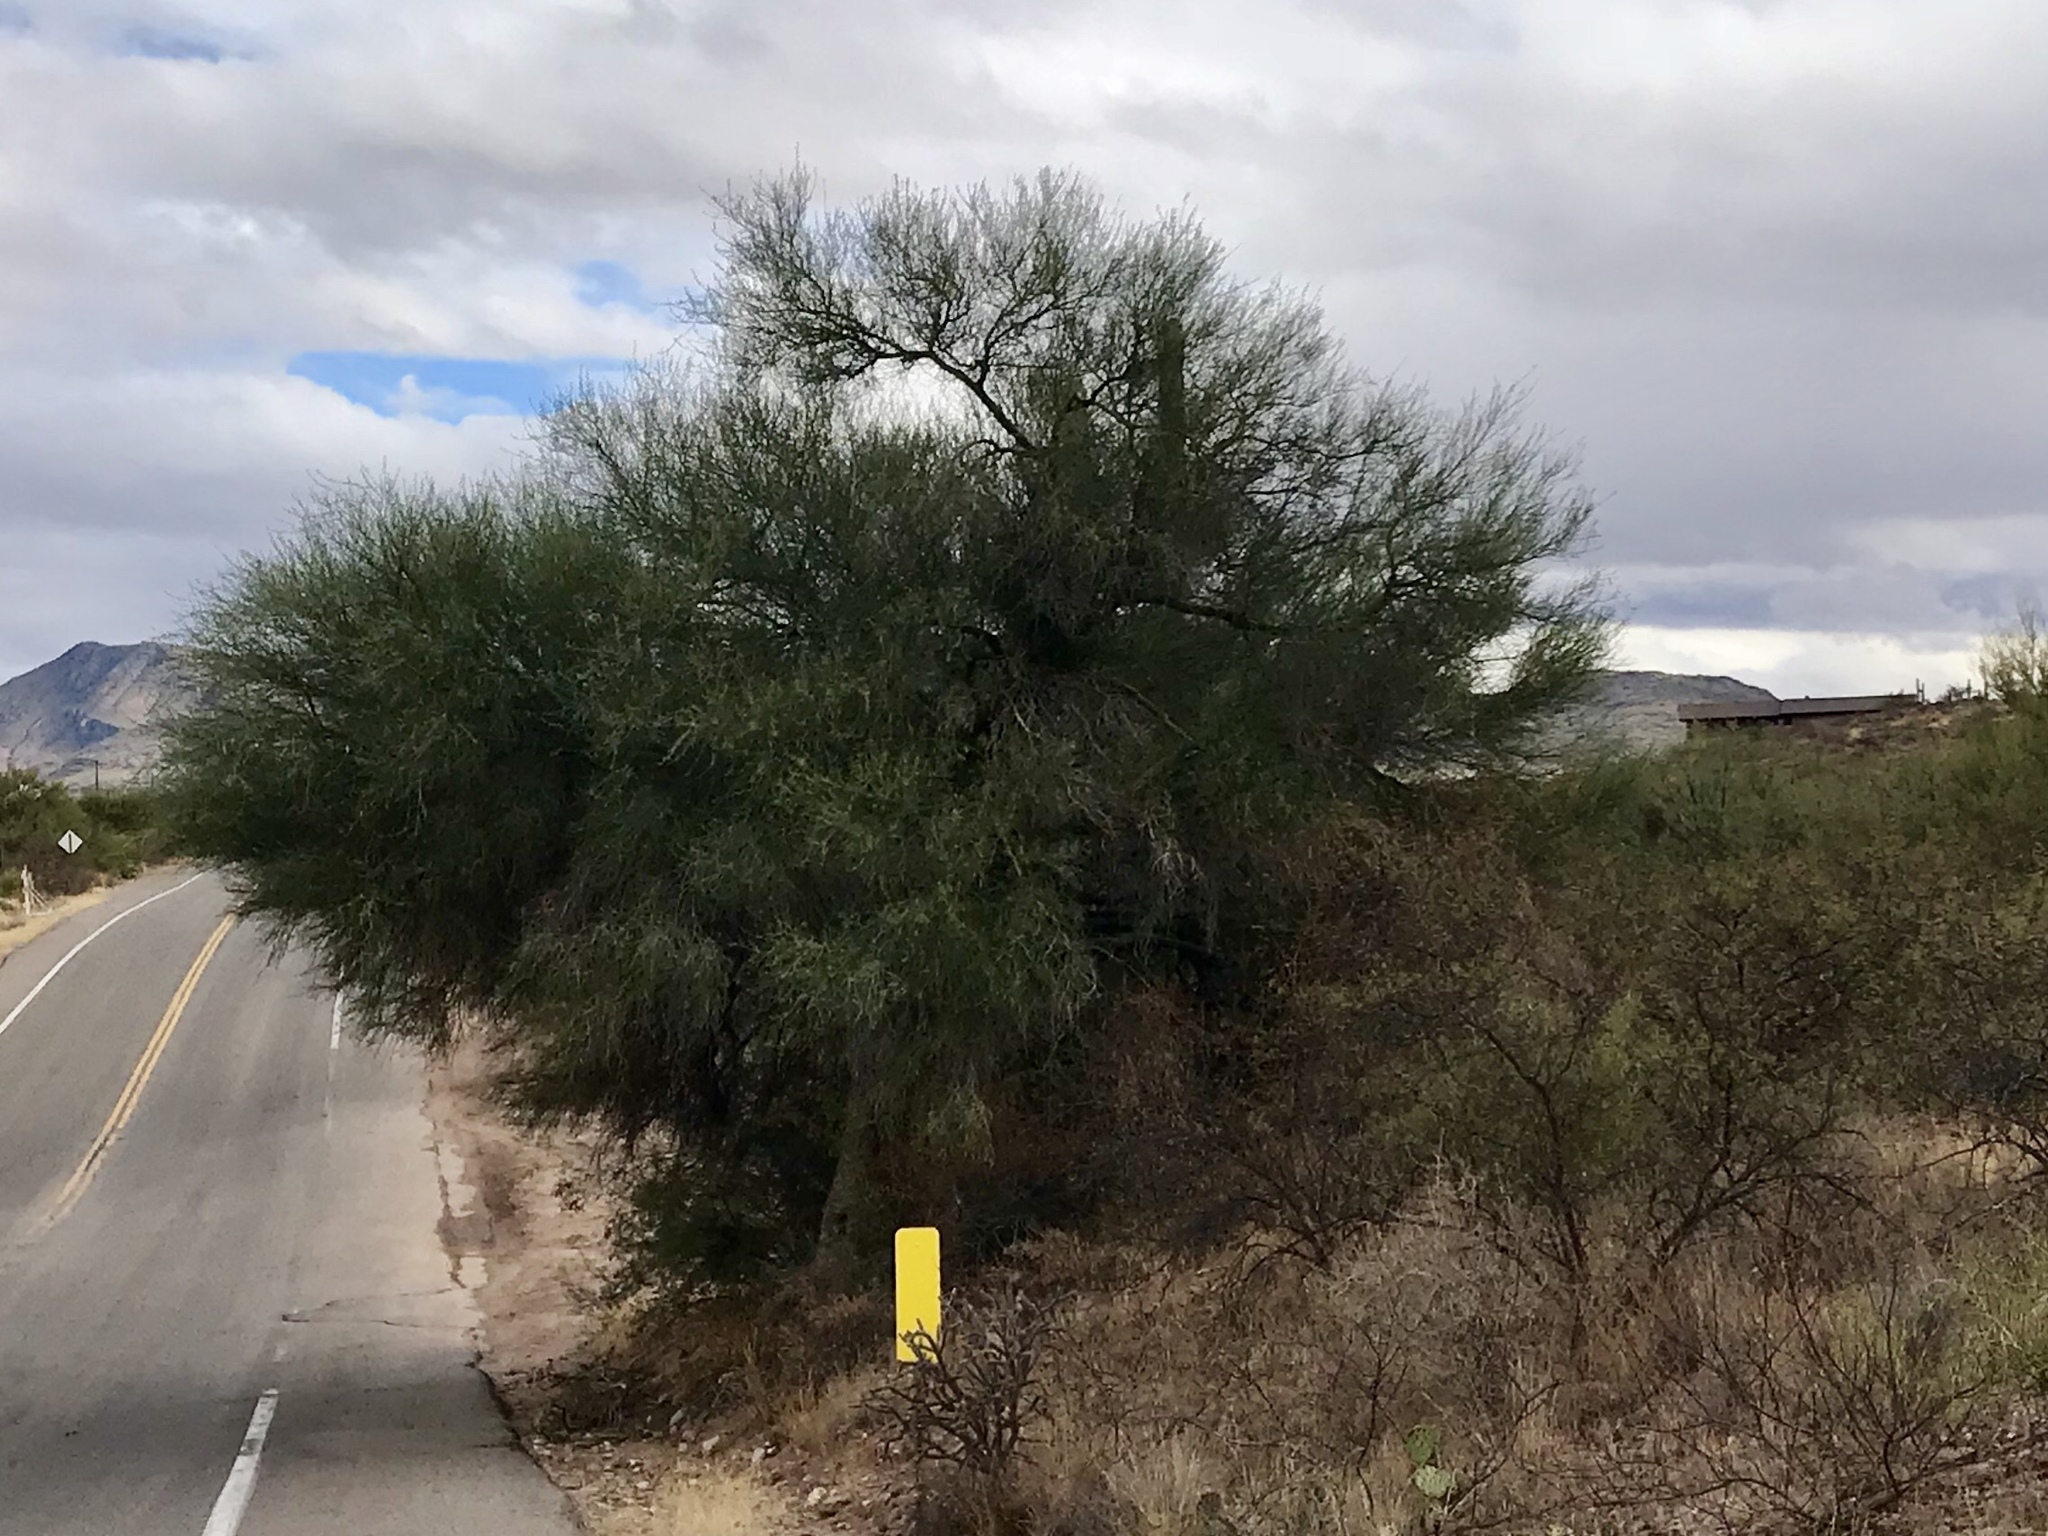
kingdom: Plantae
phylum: Tracheophyta
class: Magnoliopsida
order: Fabales
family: Fabaceae
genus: Parkinsonia
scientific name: Parkinsonia florida
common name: Blue paloverde
